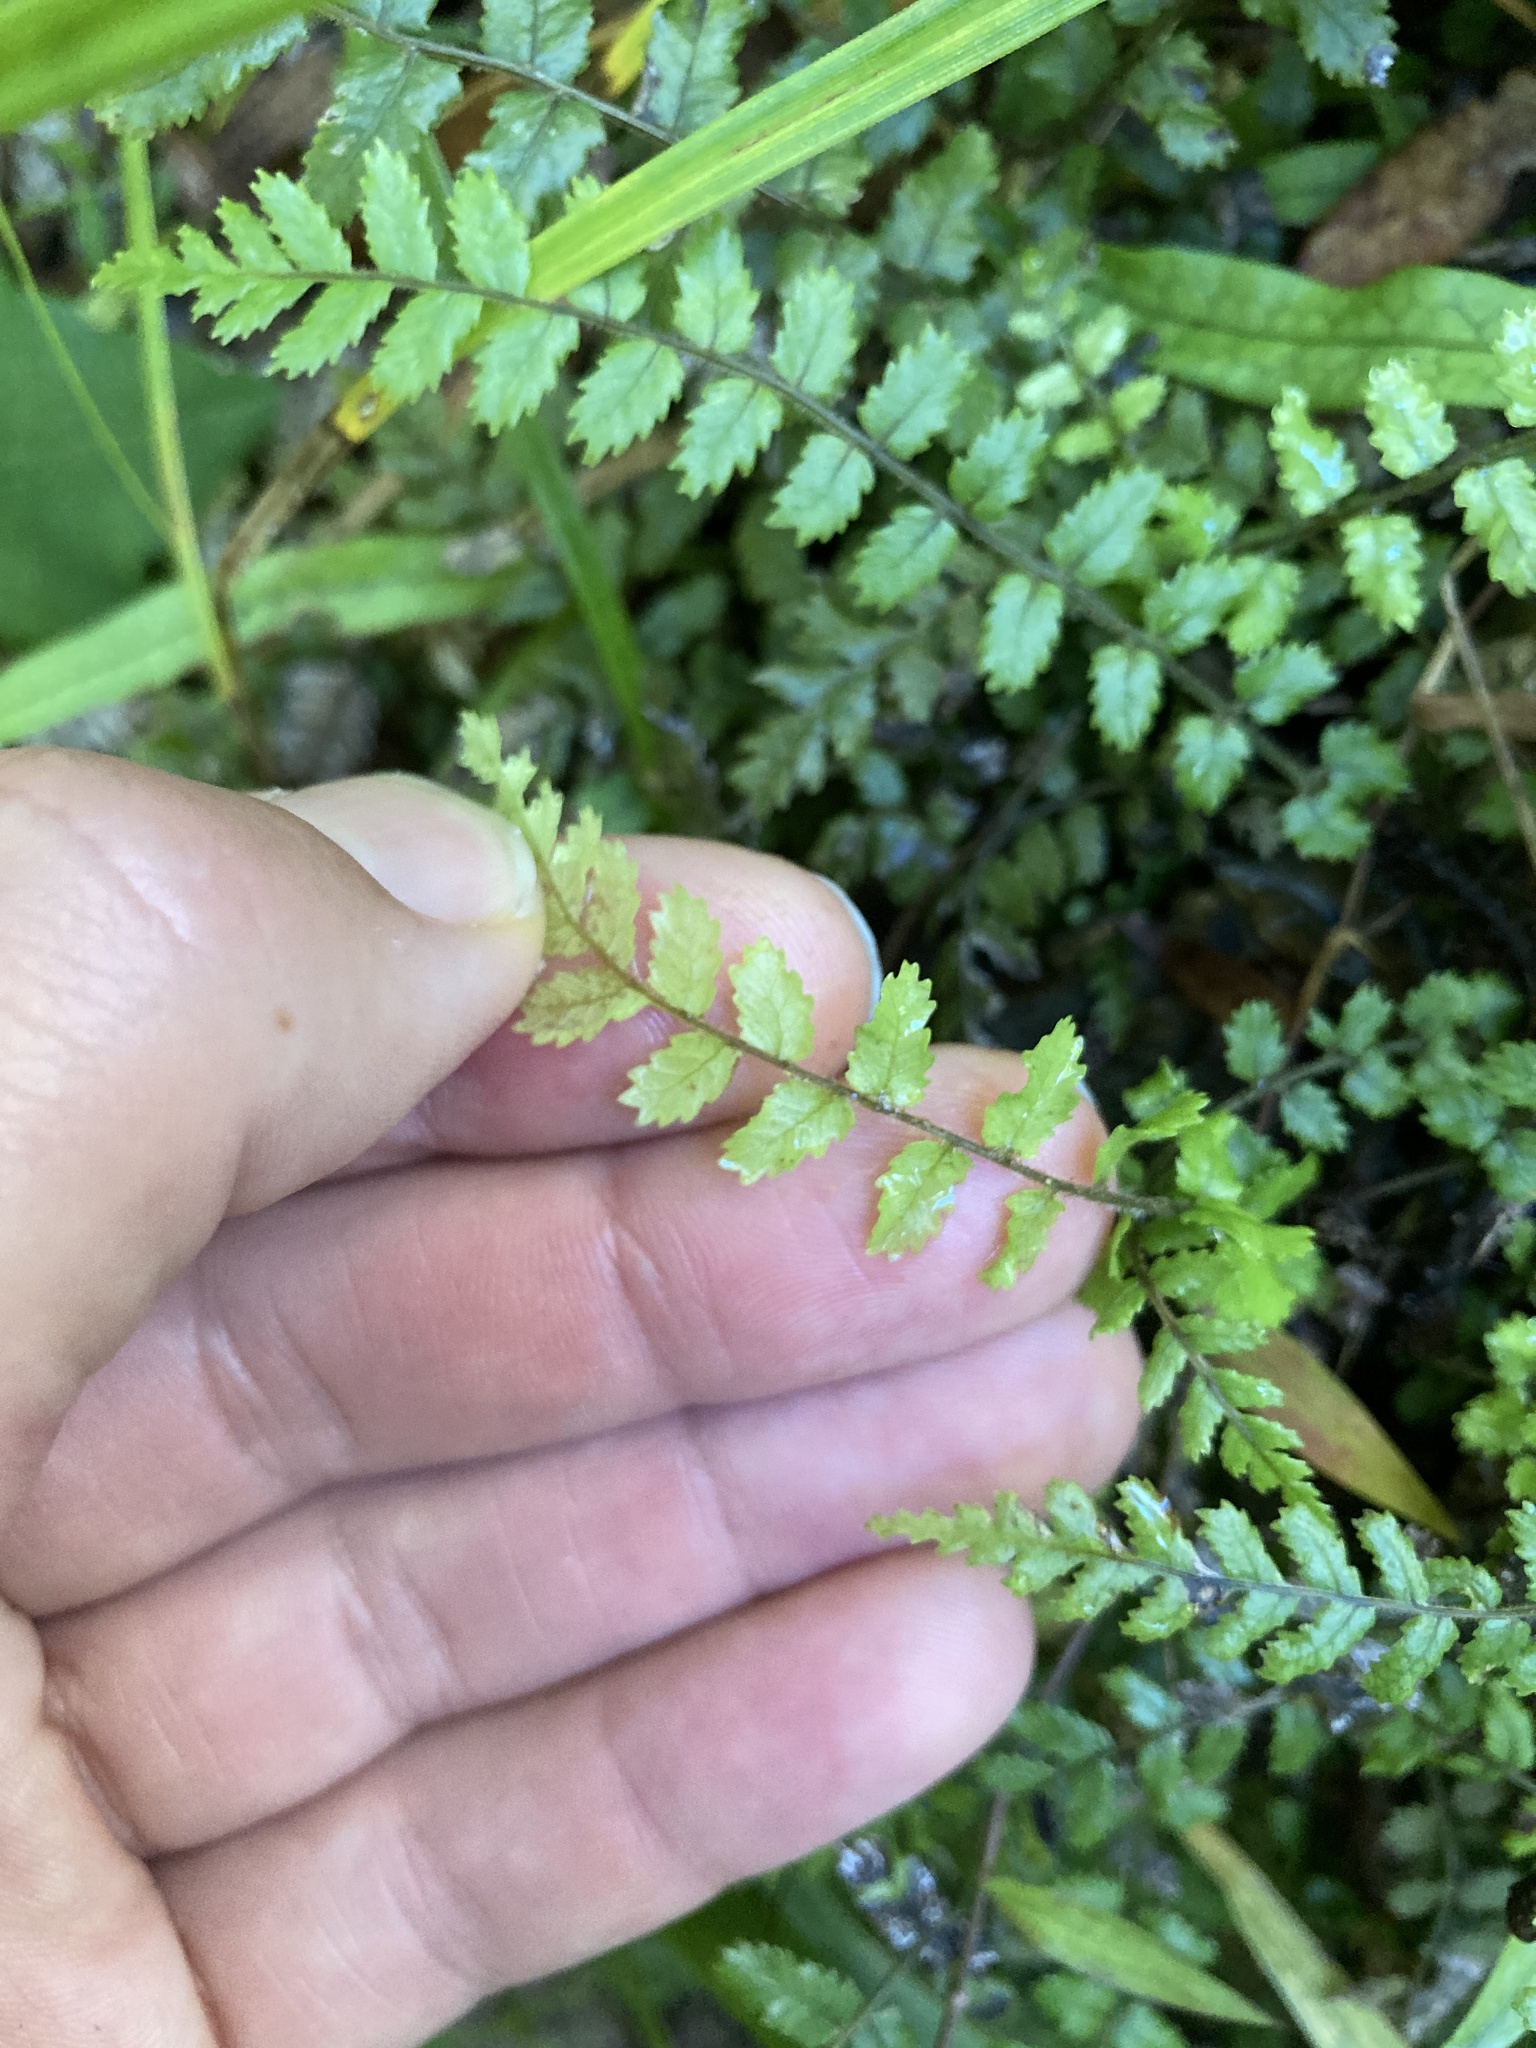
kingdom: Plantae
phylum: Tracheophyta
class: Polypodiopsida
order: Polypodiales
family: Blechnaceae
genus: Icarus
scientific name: Icarus filiformis
